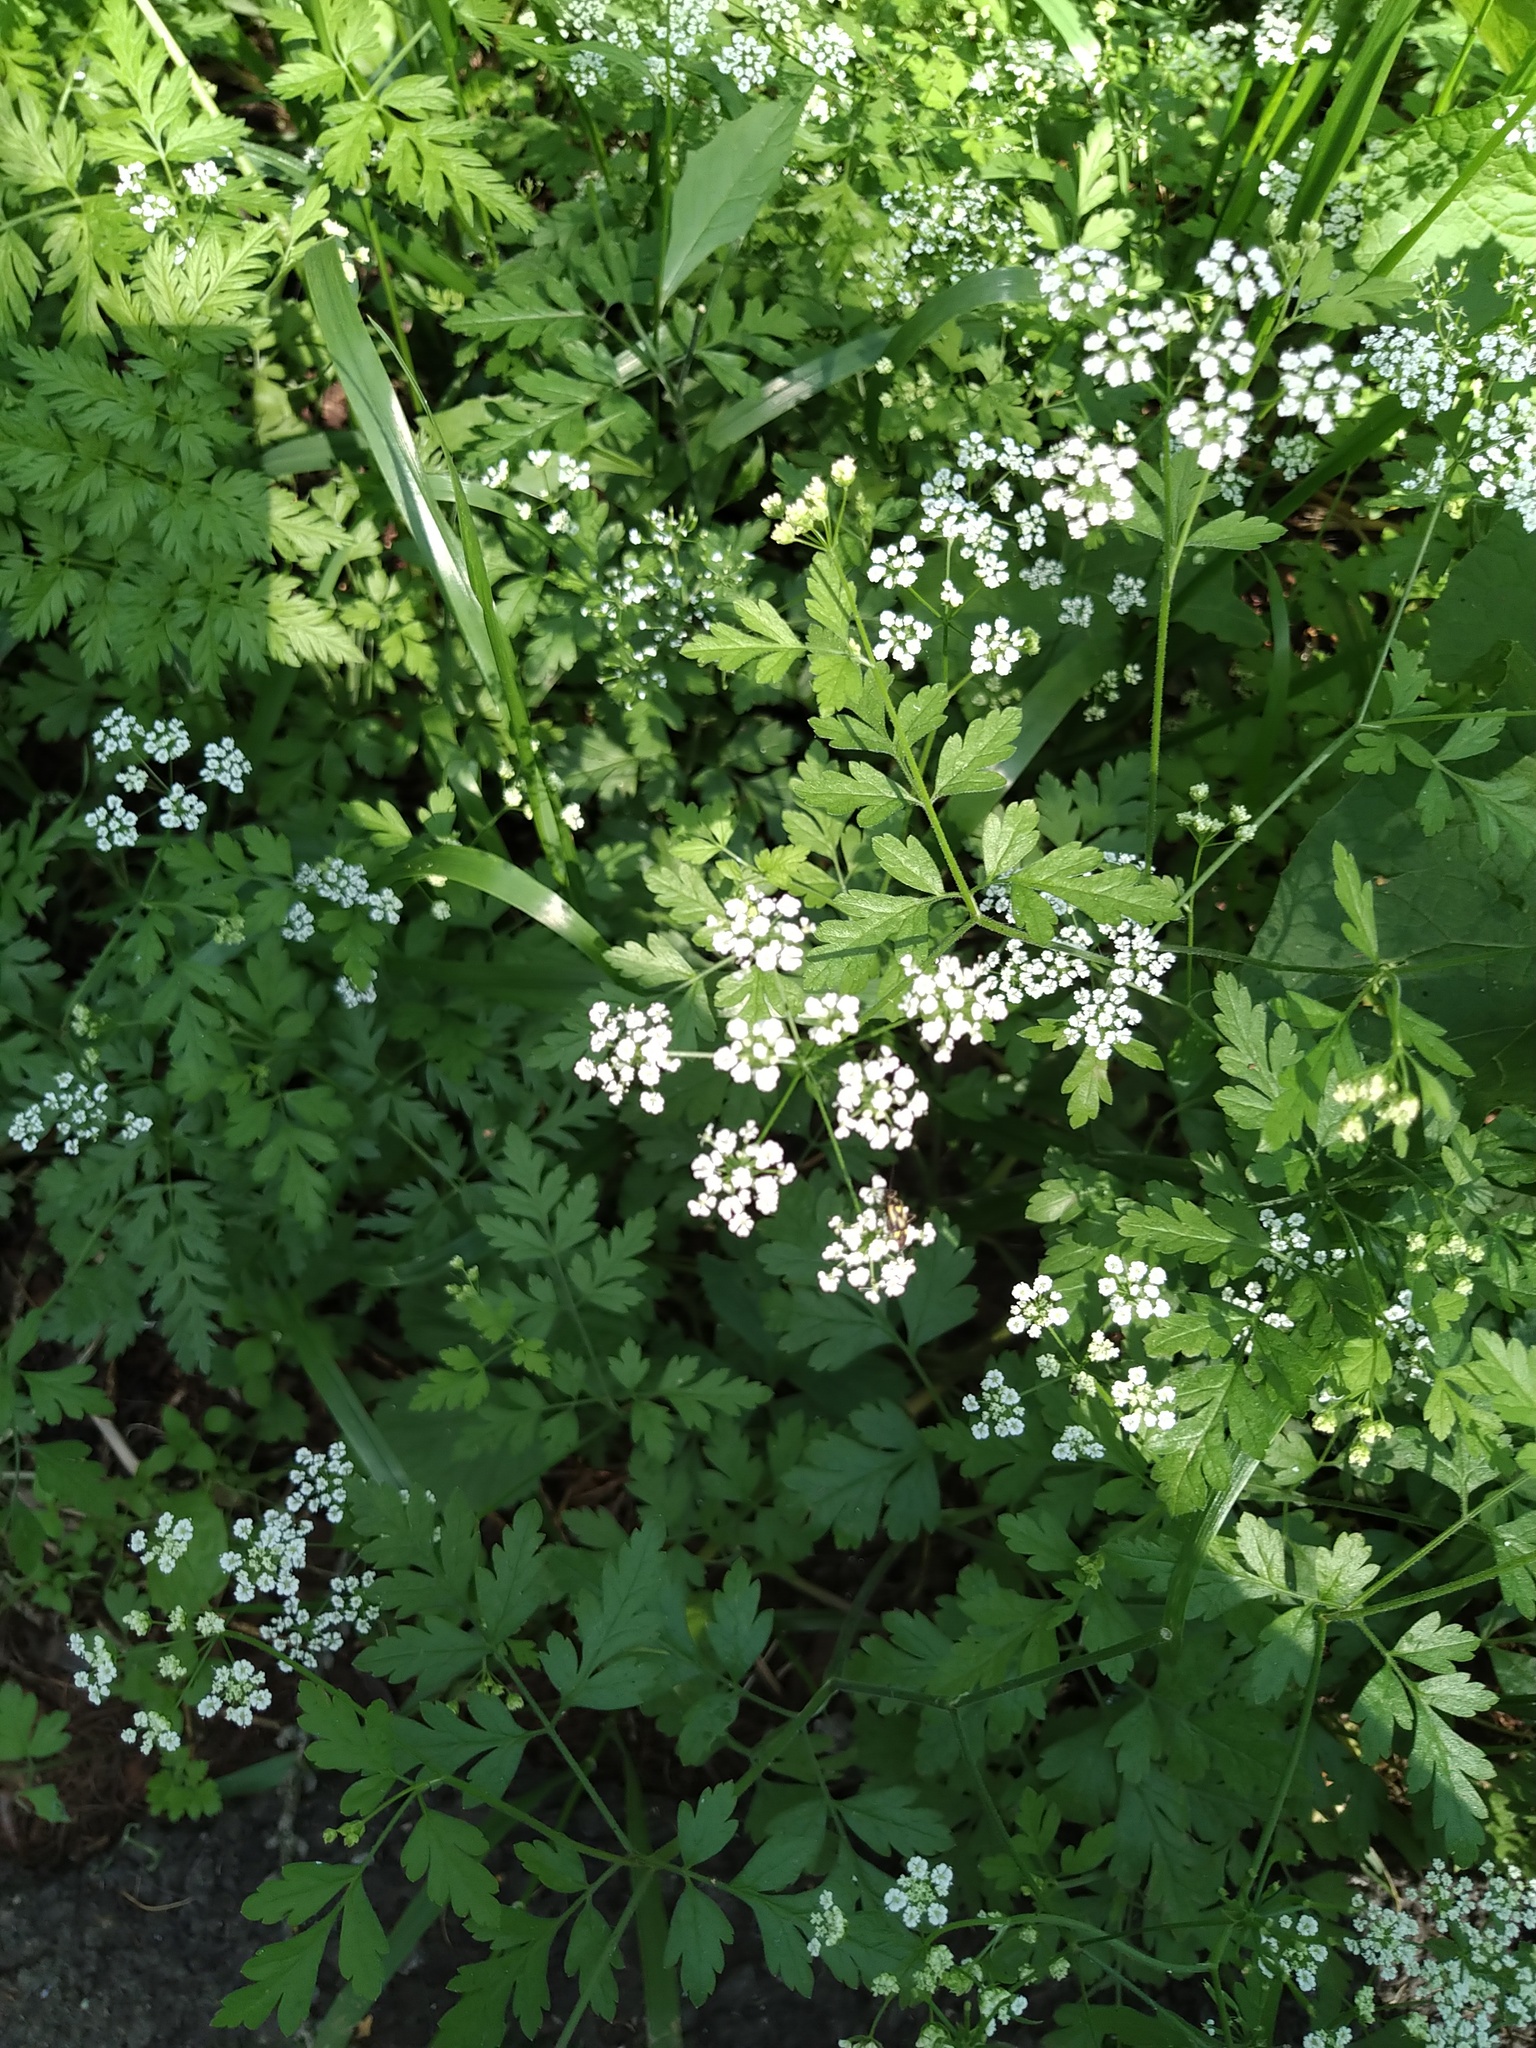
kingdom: Plantae
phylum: Tracheophyta
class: Magnoliopsida
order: Apiales
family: Apiaceae
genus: Chaerophyllum
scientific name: Chaerophyllum temulum
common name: Rough chervil
